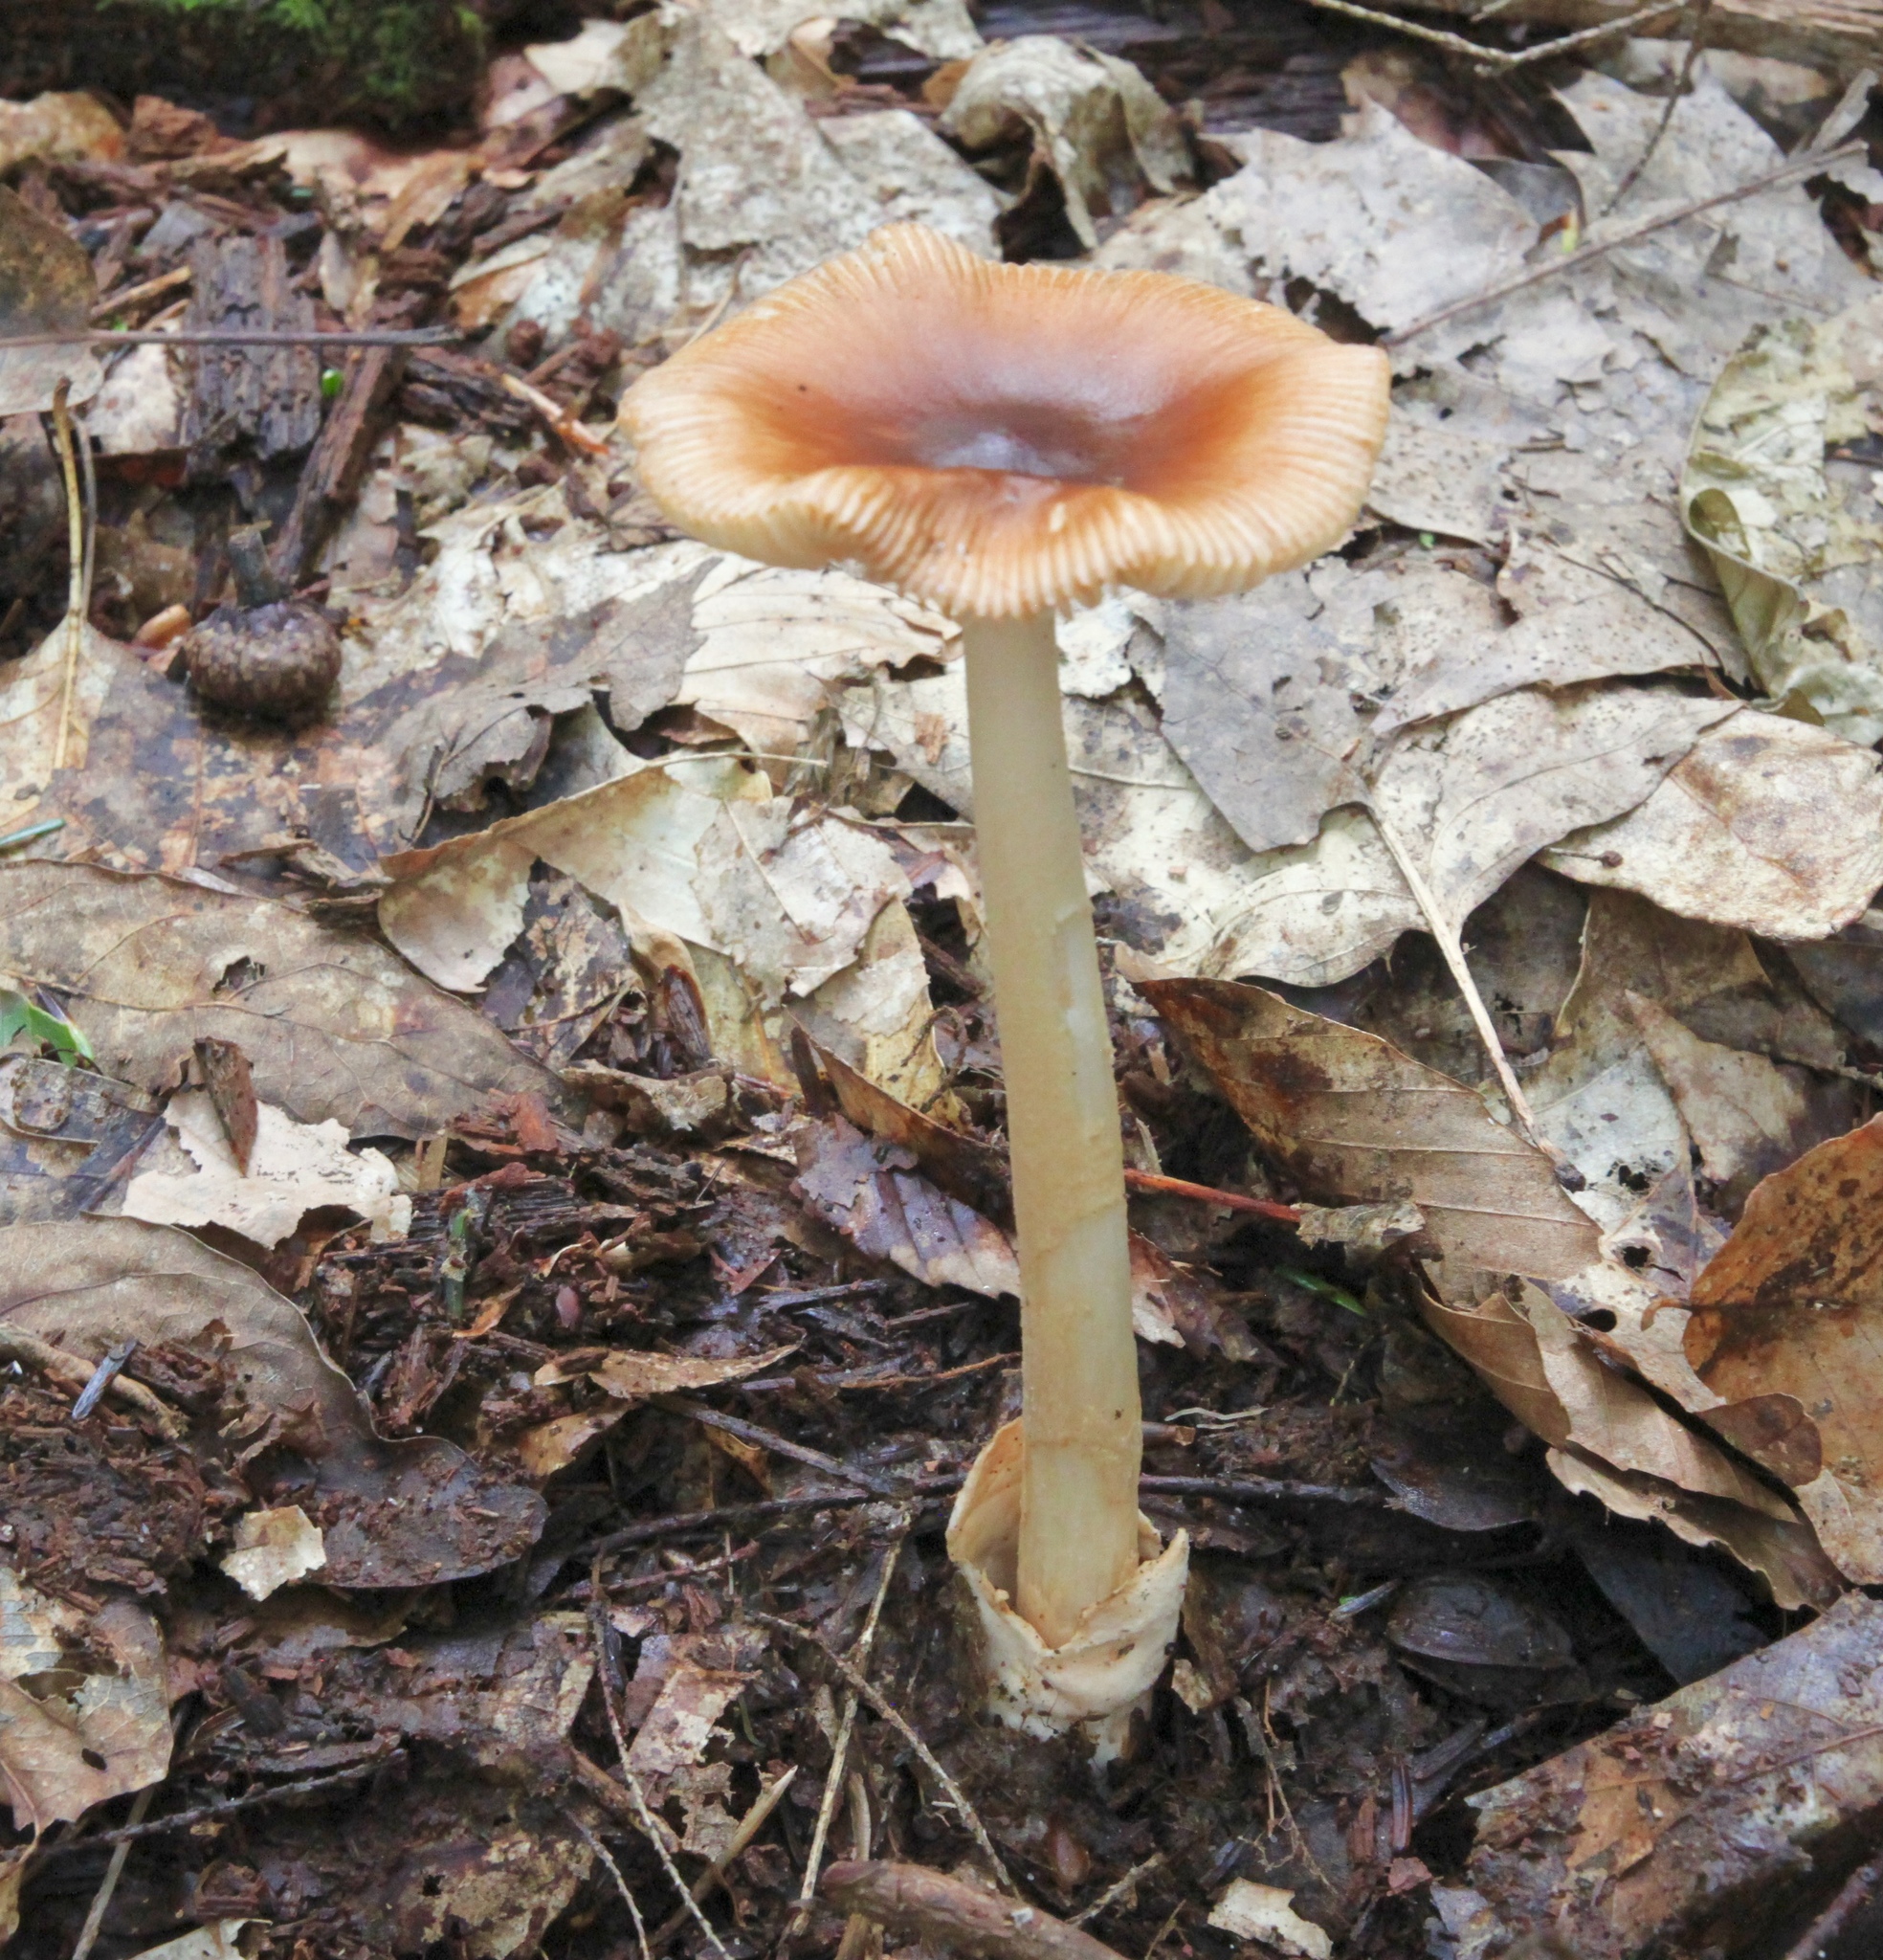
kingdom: Fungi
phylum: Basidiomycota
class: Agaricomycetes
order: Agaricales
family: Amanitaceae
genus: Amanita
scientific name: Amanita fulva
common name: Tawny grisette
